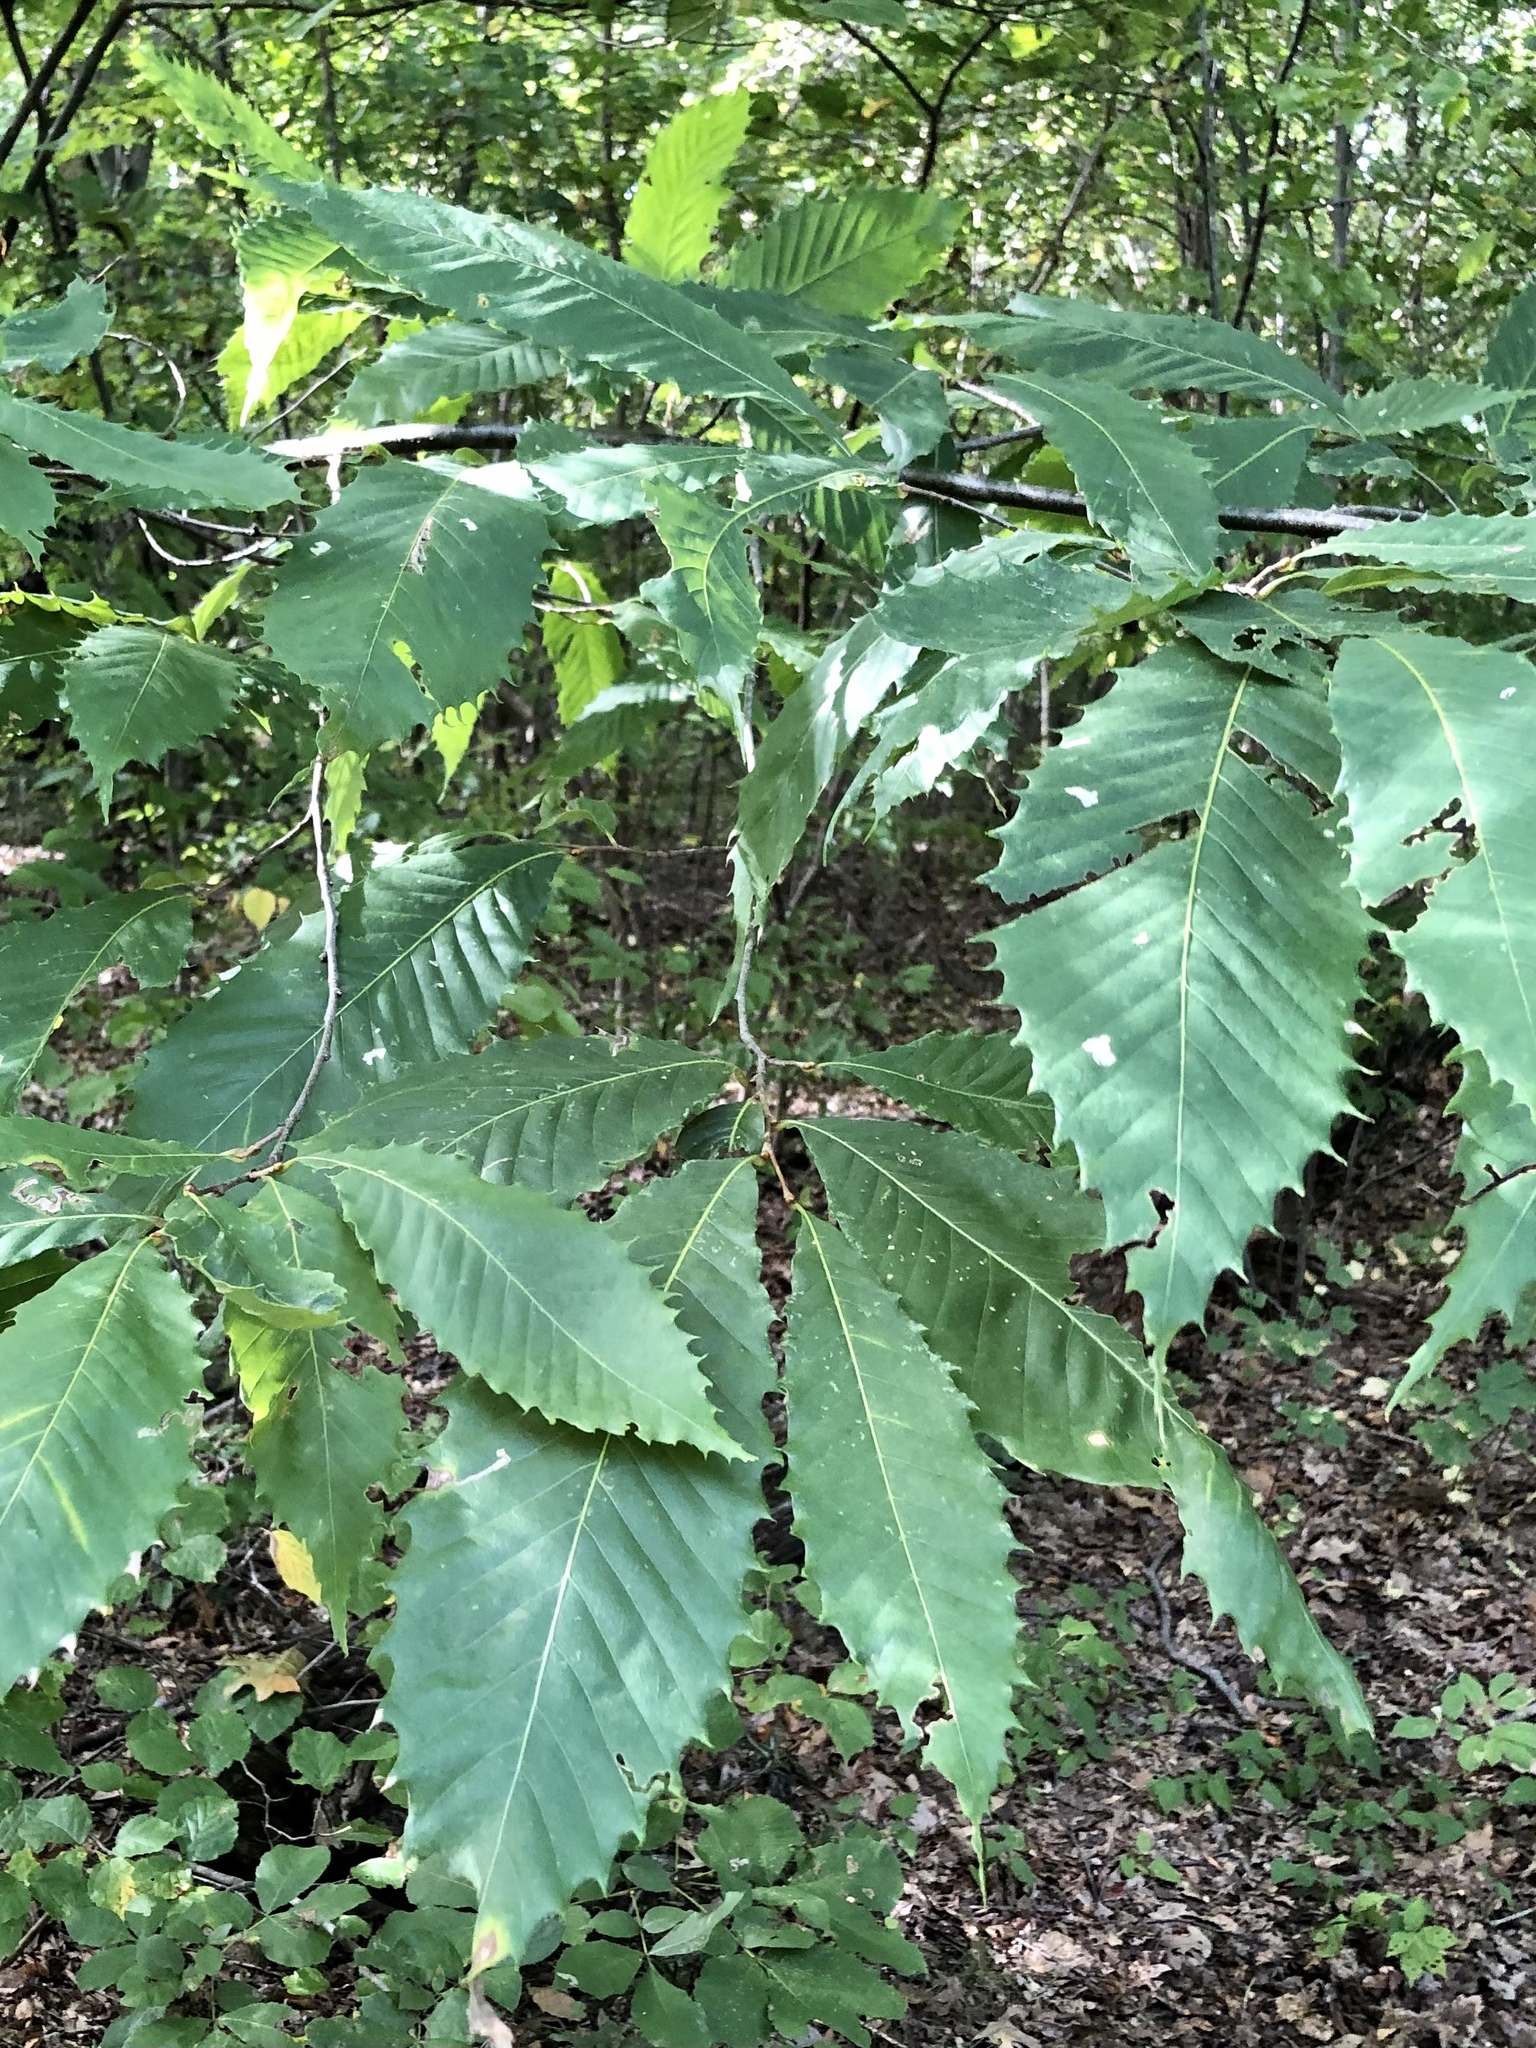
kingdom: Plantae
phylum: Tracheophyta
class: Magnoliopsida
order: Fagales
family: Fagaceae
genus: Castanea
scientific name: Castanea dentata
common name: American chestnut
